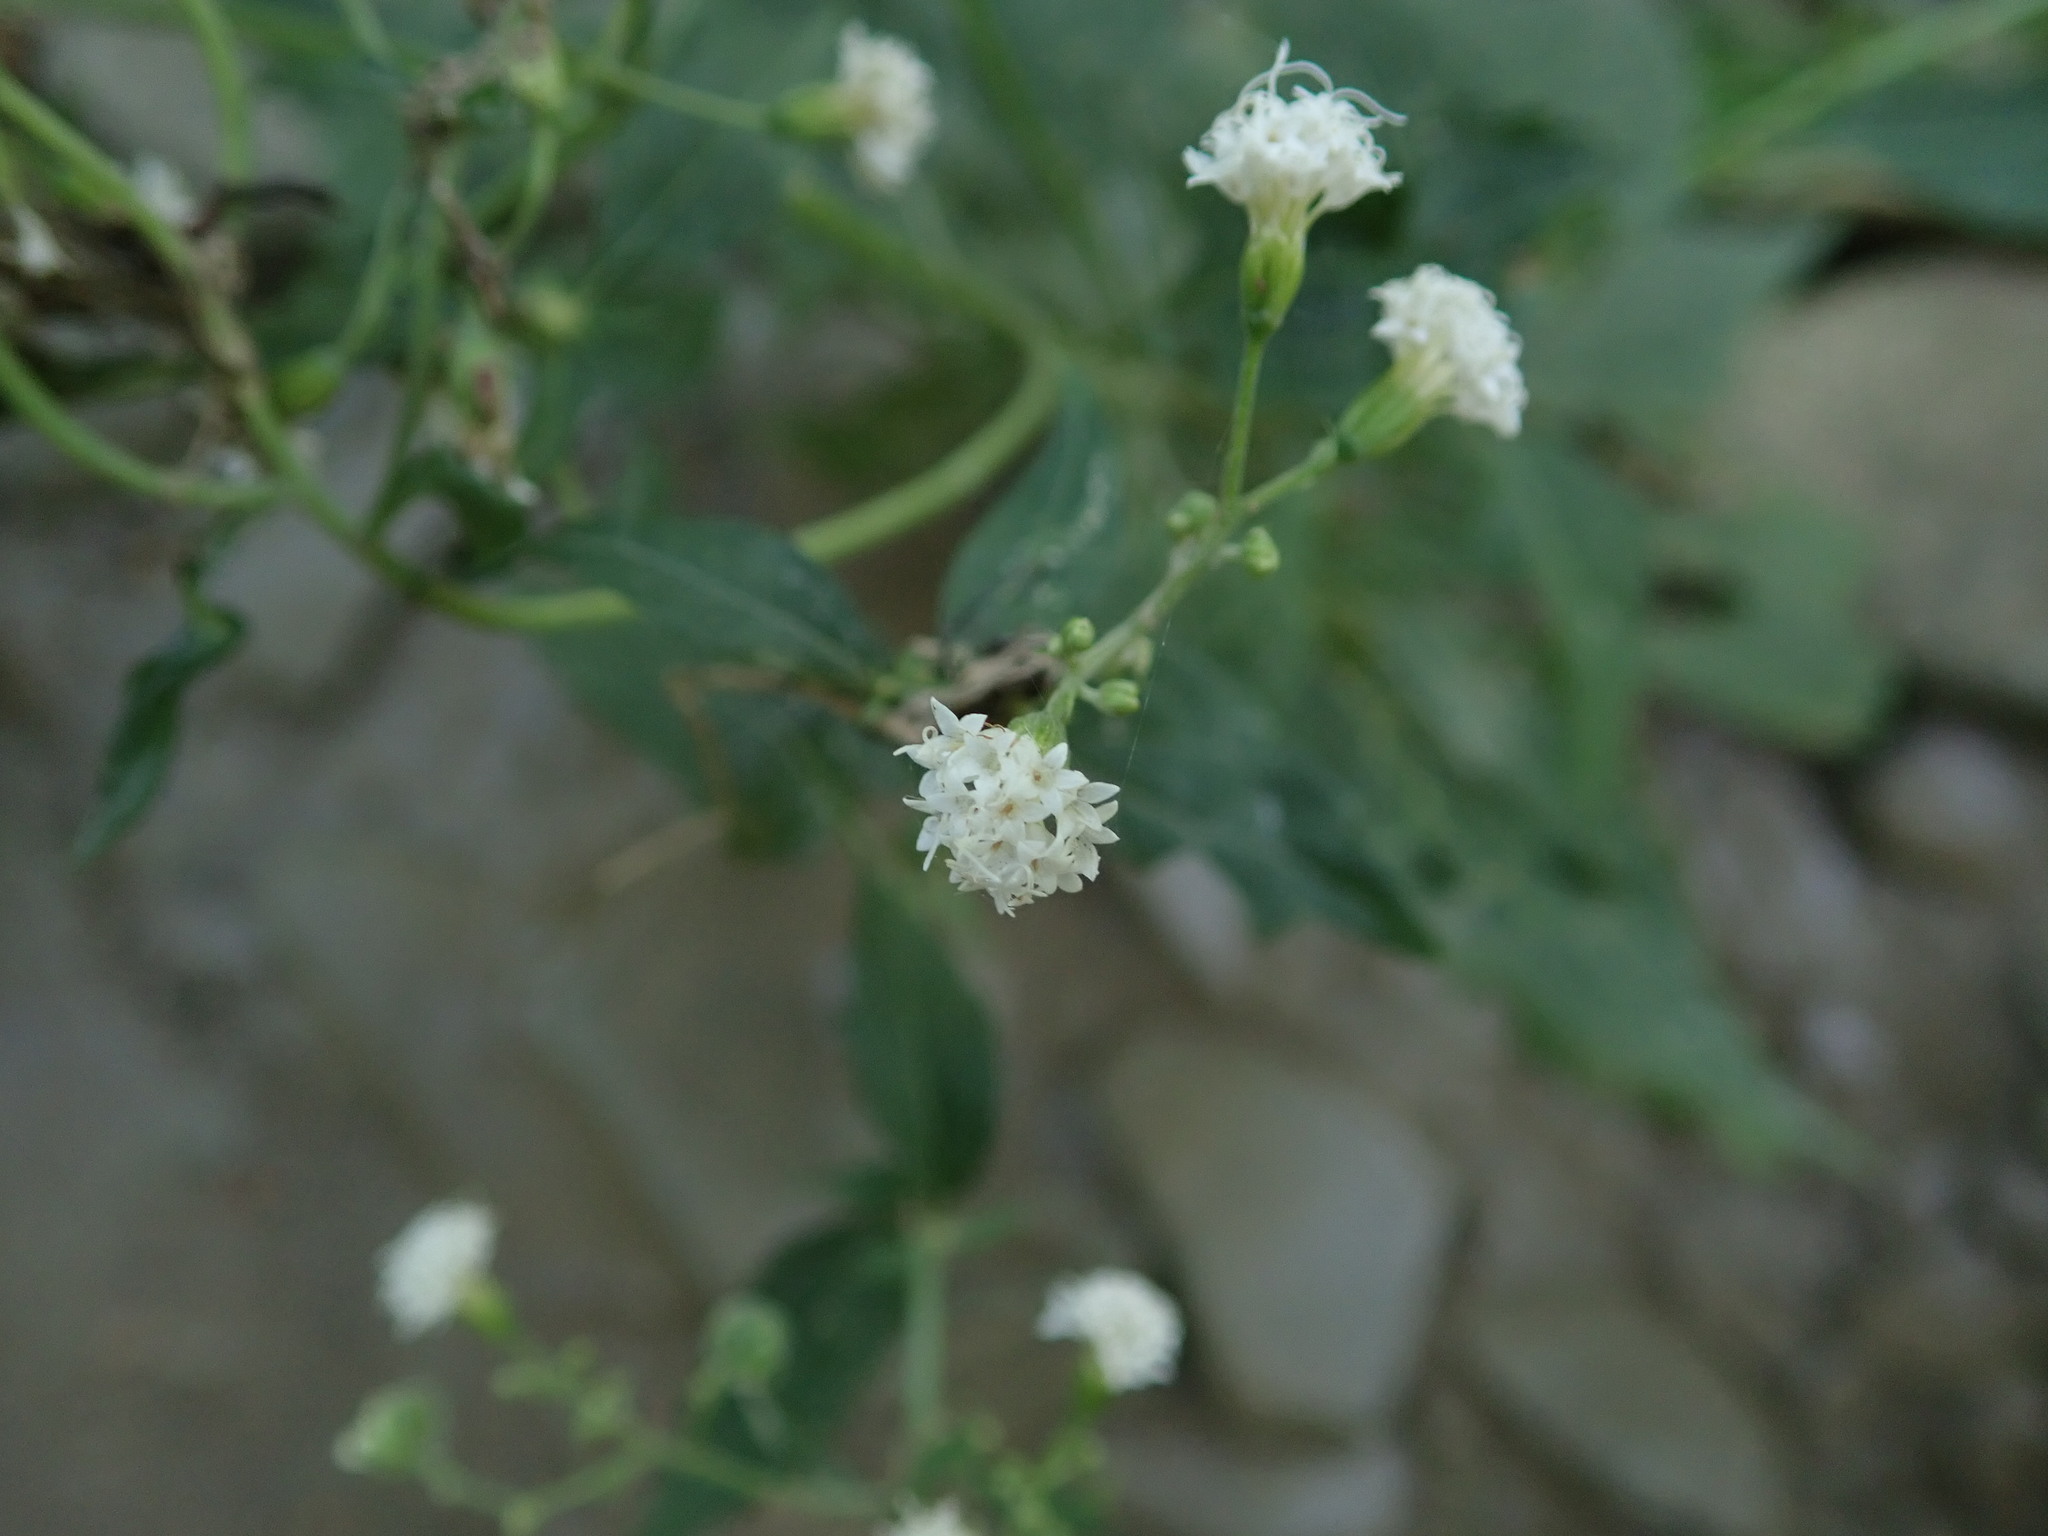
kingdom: Plantae
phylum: Tracheophyta
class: Magnoliopsida
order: Asterales
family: Asteraceae
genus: Ageratina
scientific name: Ageratina altissima
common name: White snakeroot
